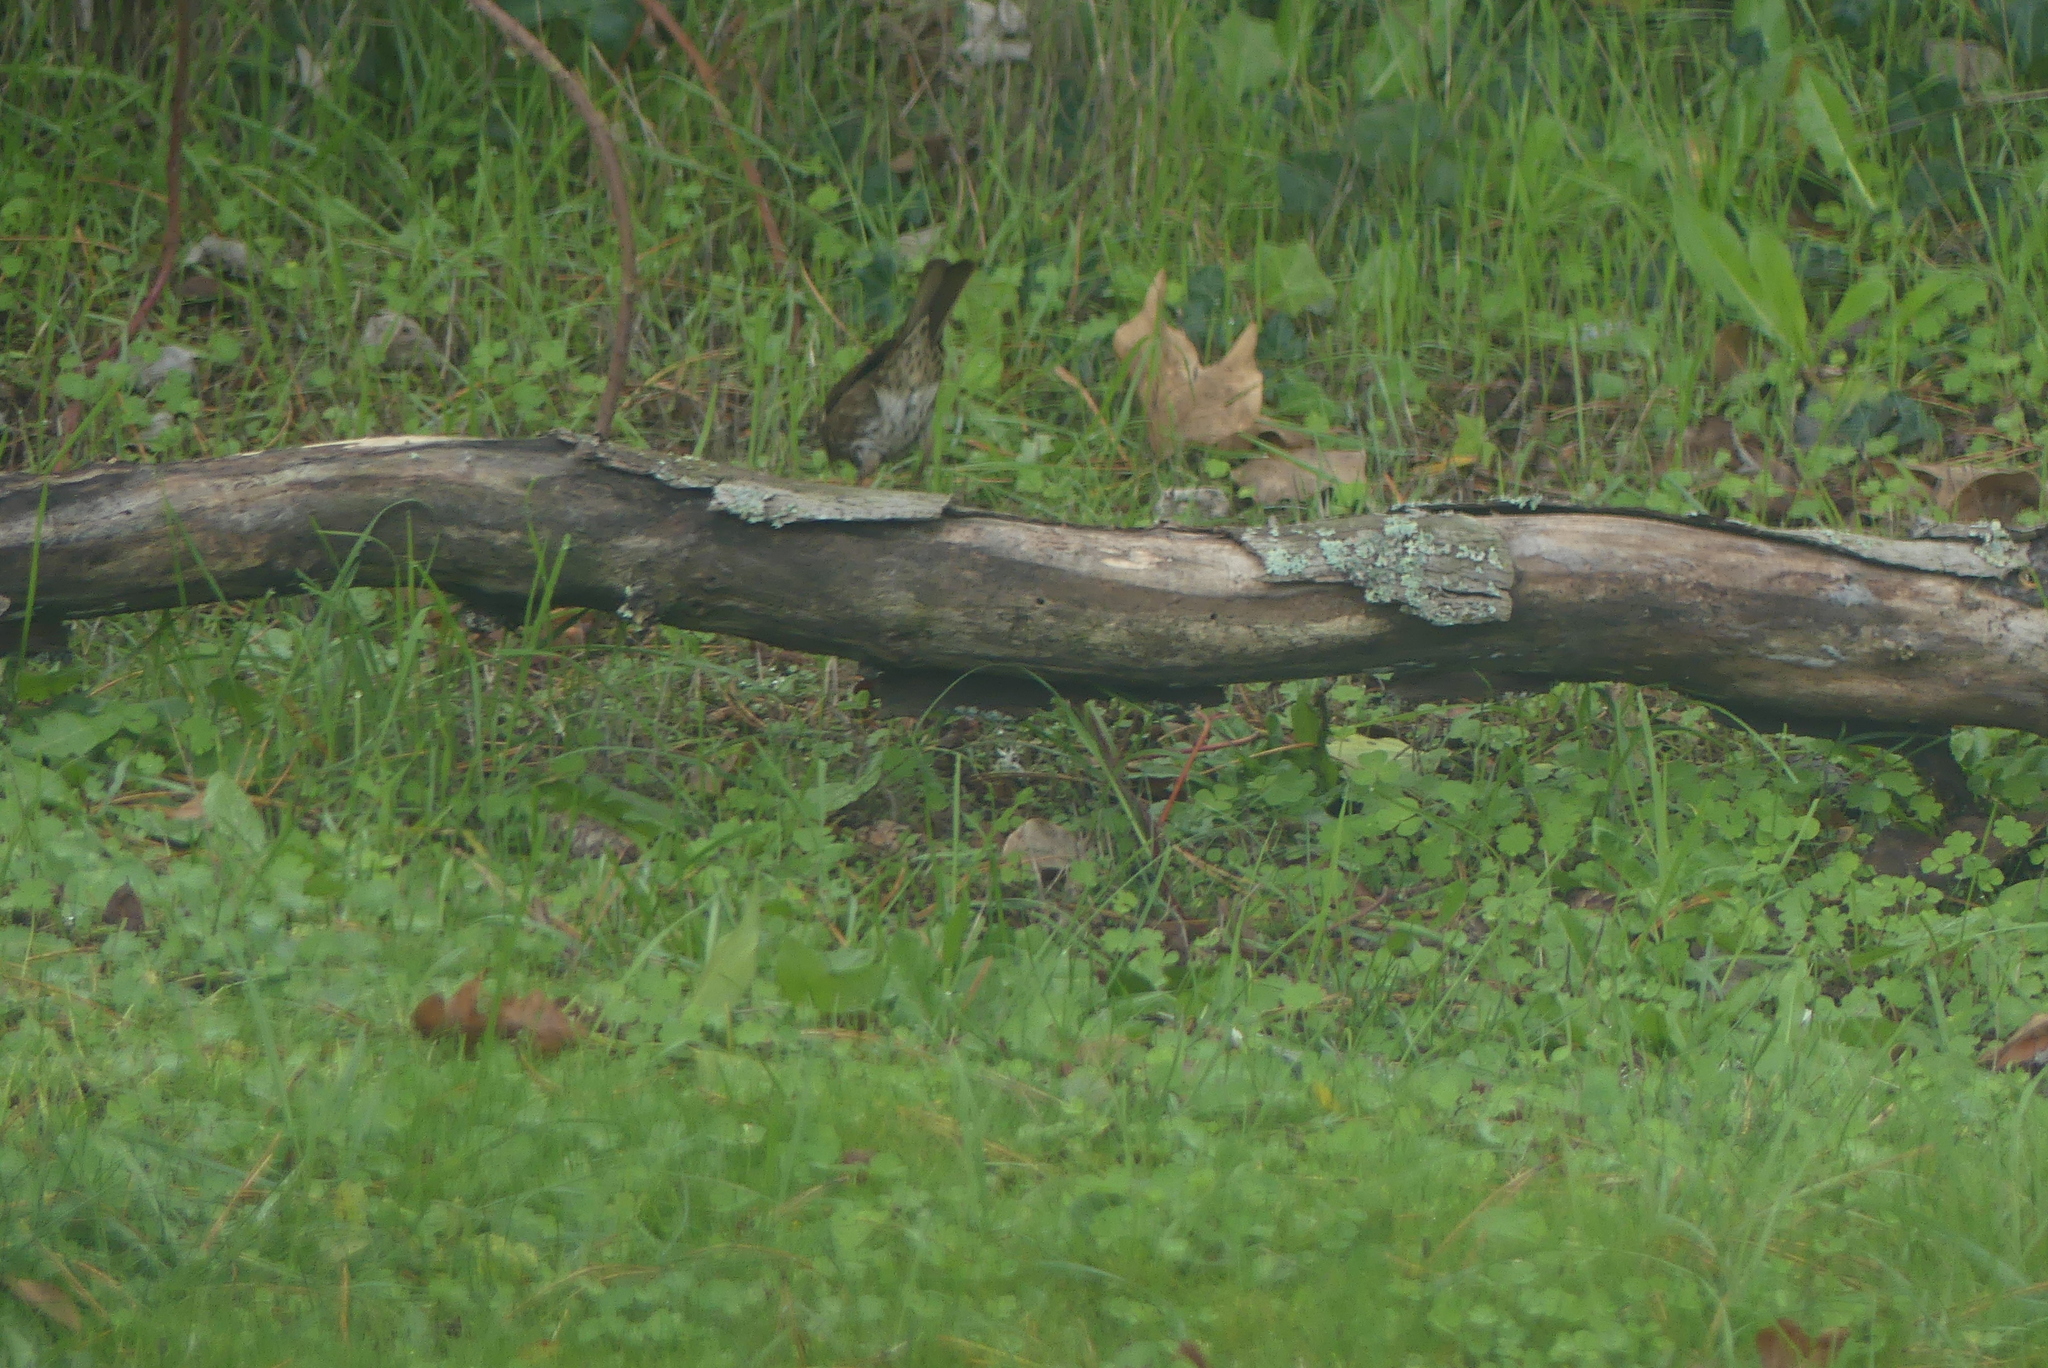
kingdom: Animalia
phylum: Chordata
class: Aves
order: Passeriformes
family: Passerellidae
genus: Passerella
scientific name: Passerella iliaca
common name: Fox sparrow
